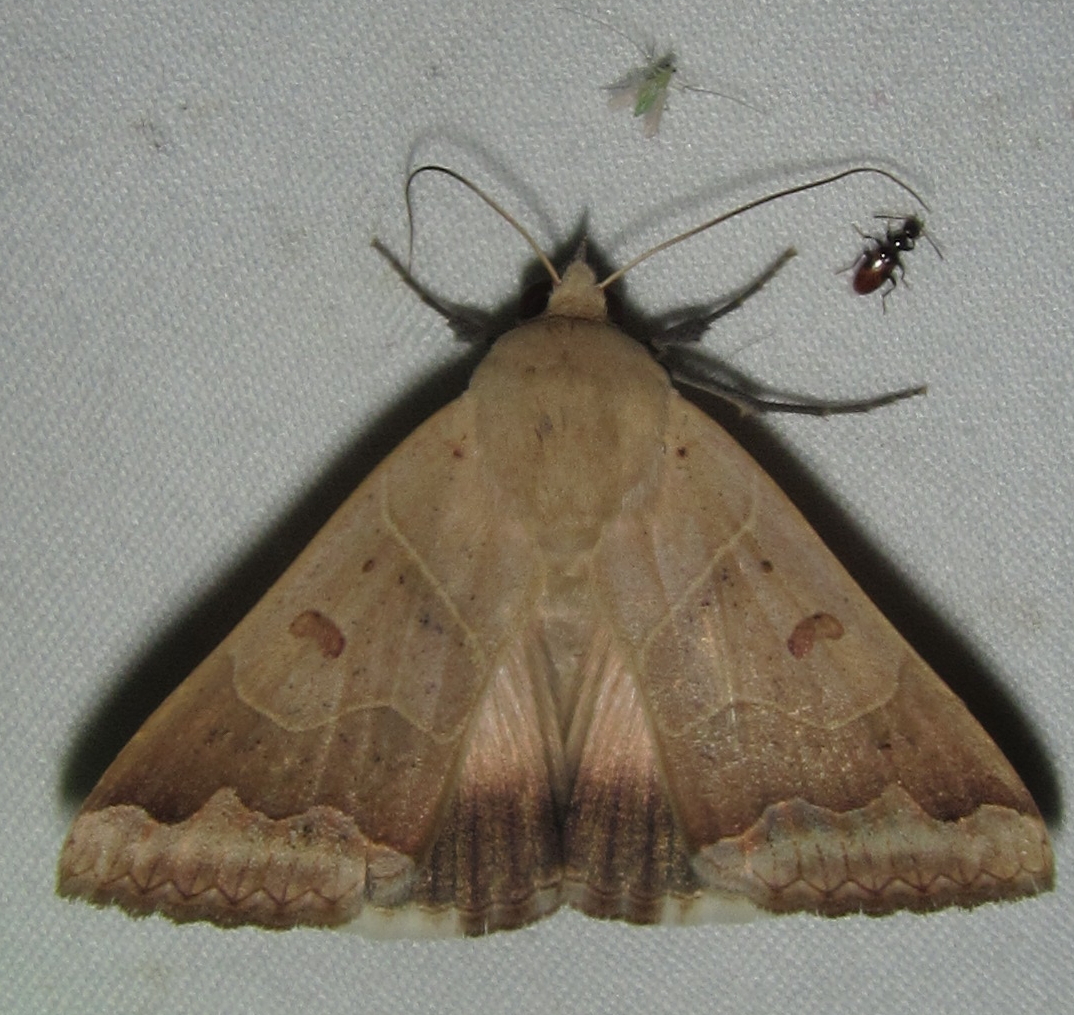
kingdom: Animalia
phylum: Arthropoda
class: Insecta
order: Lepidoptera
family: Erebidae
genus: Ophiusa
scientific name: Ophiusa mejanesi
